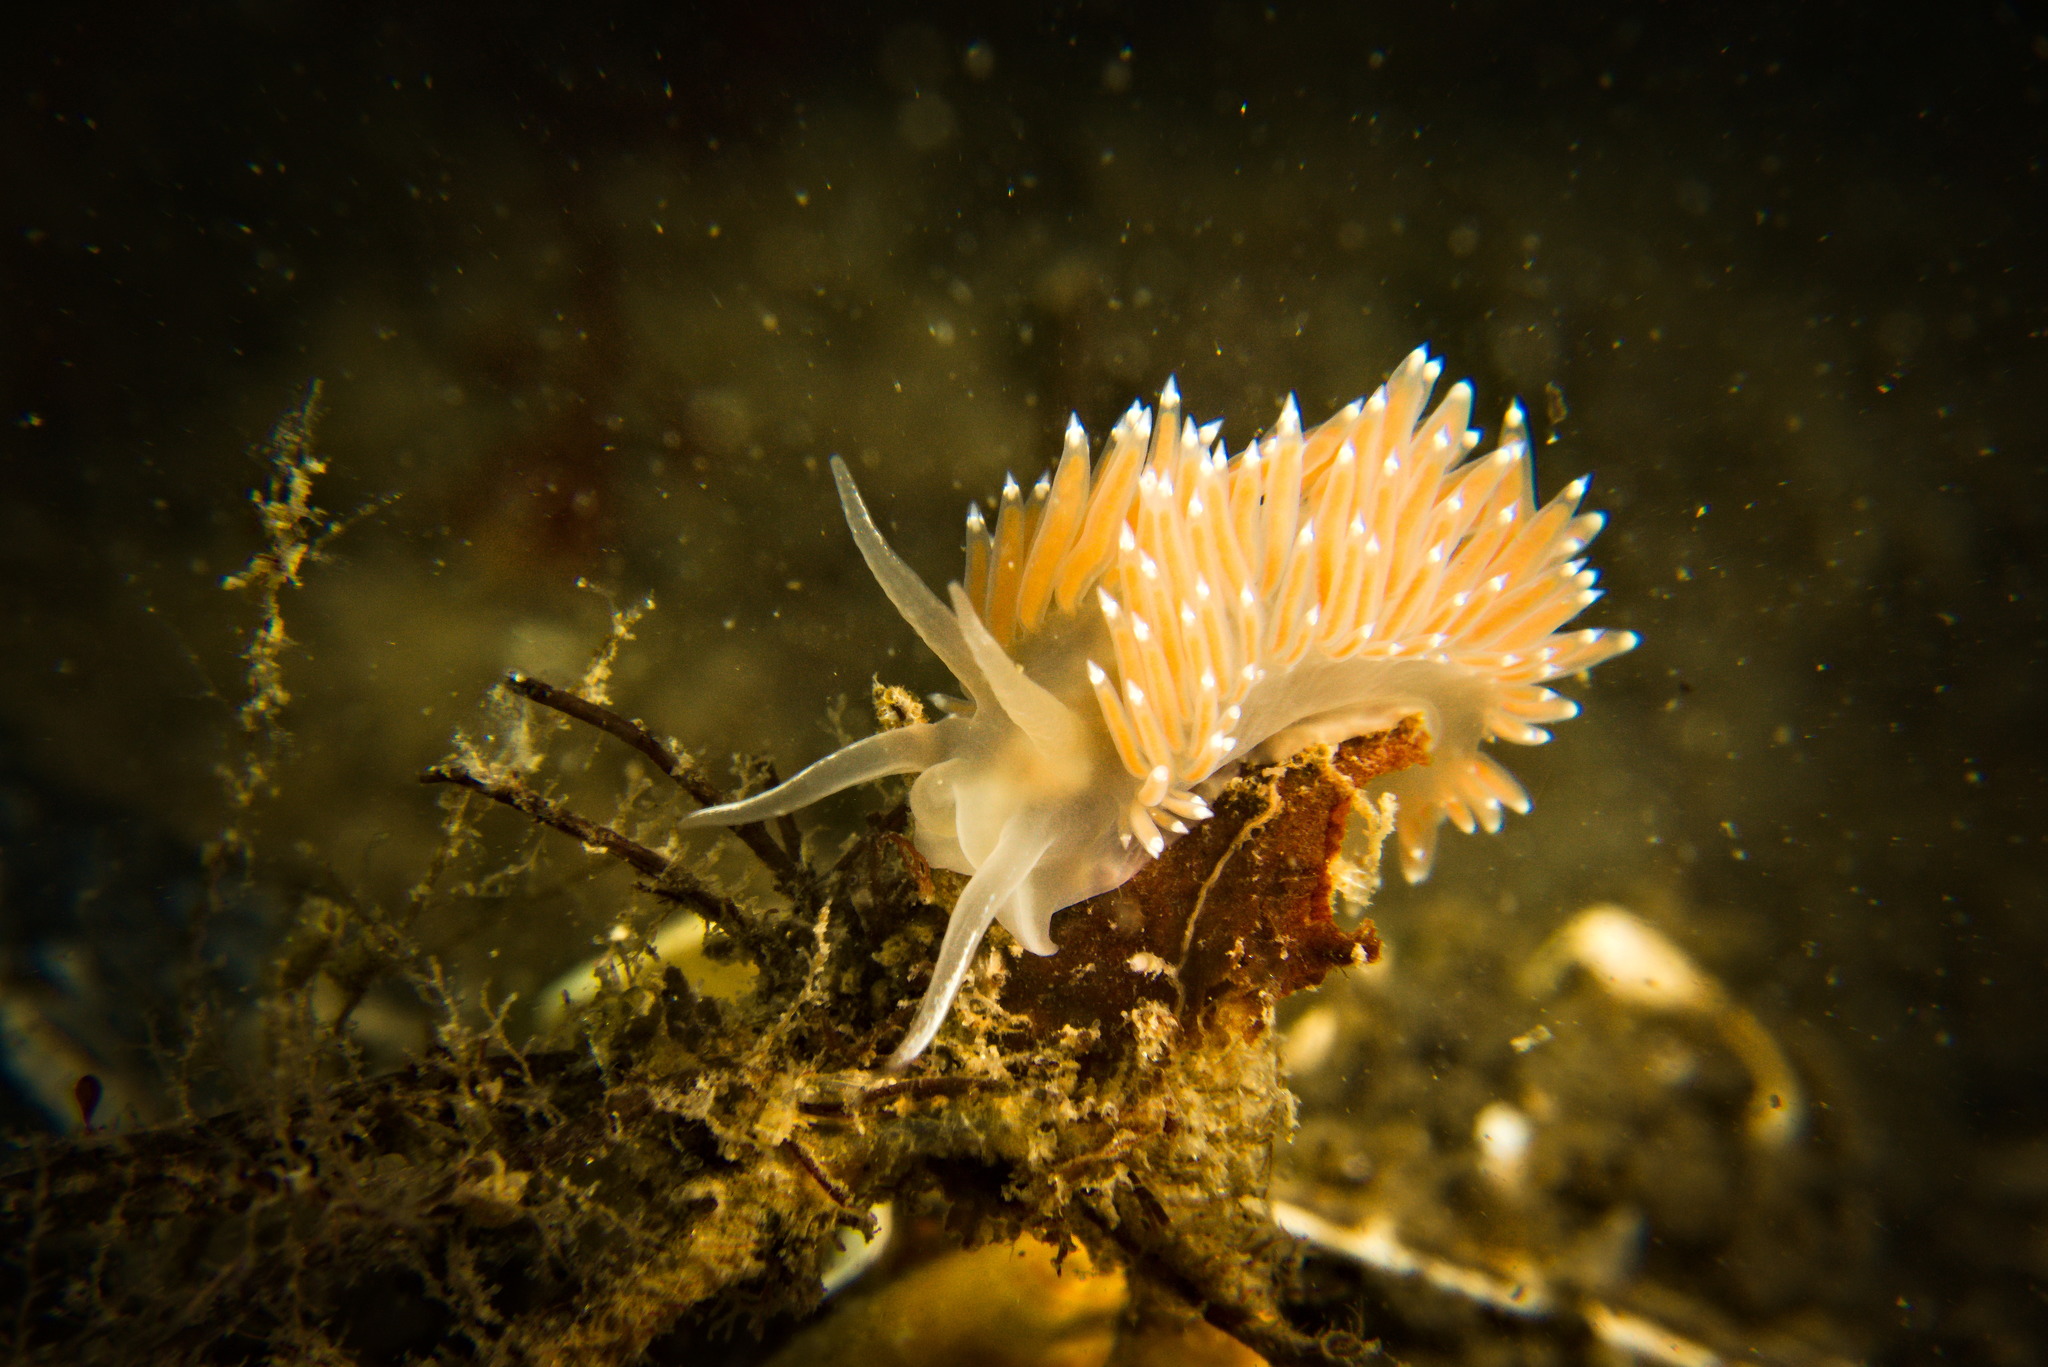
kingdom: Animalia
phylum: Mollusca
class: Gastropoda
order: Nudibranchia
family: Coryphellidae
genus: Coryphella
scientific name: Coryphella verrucosa
